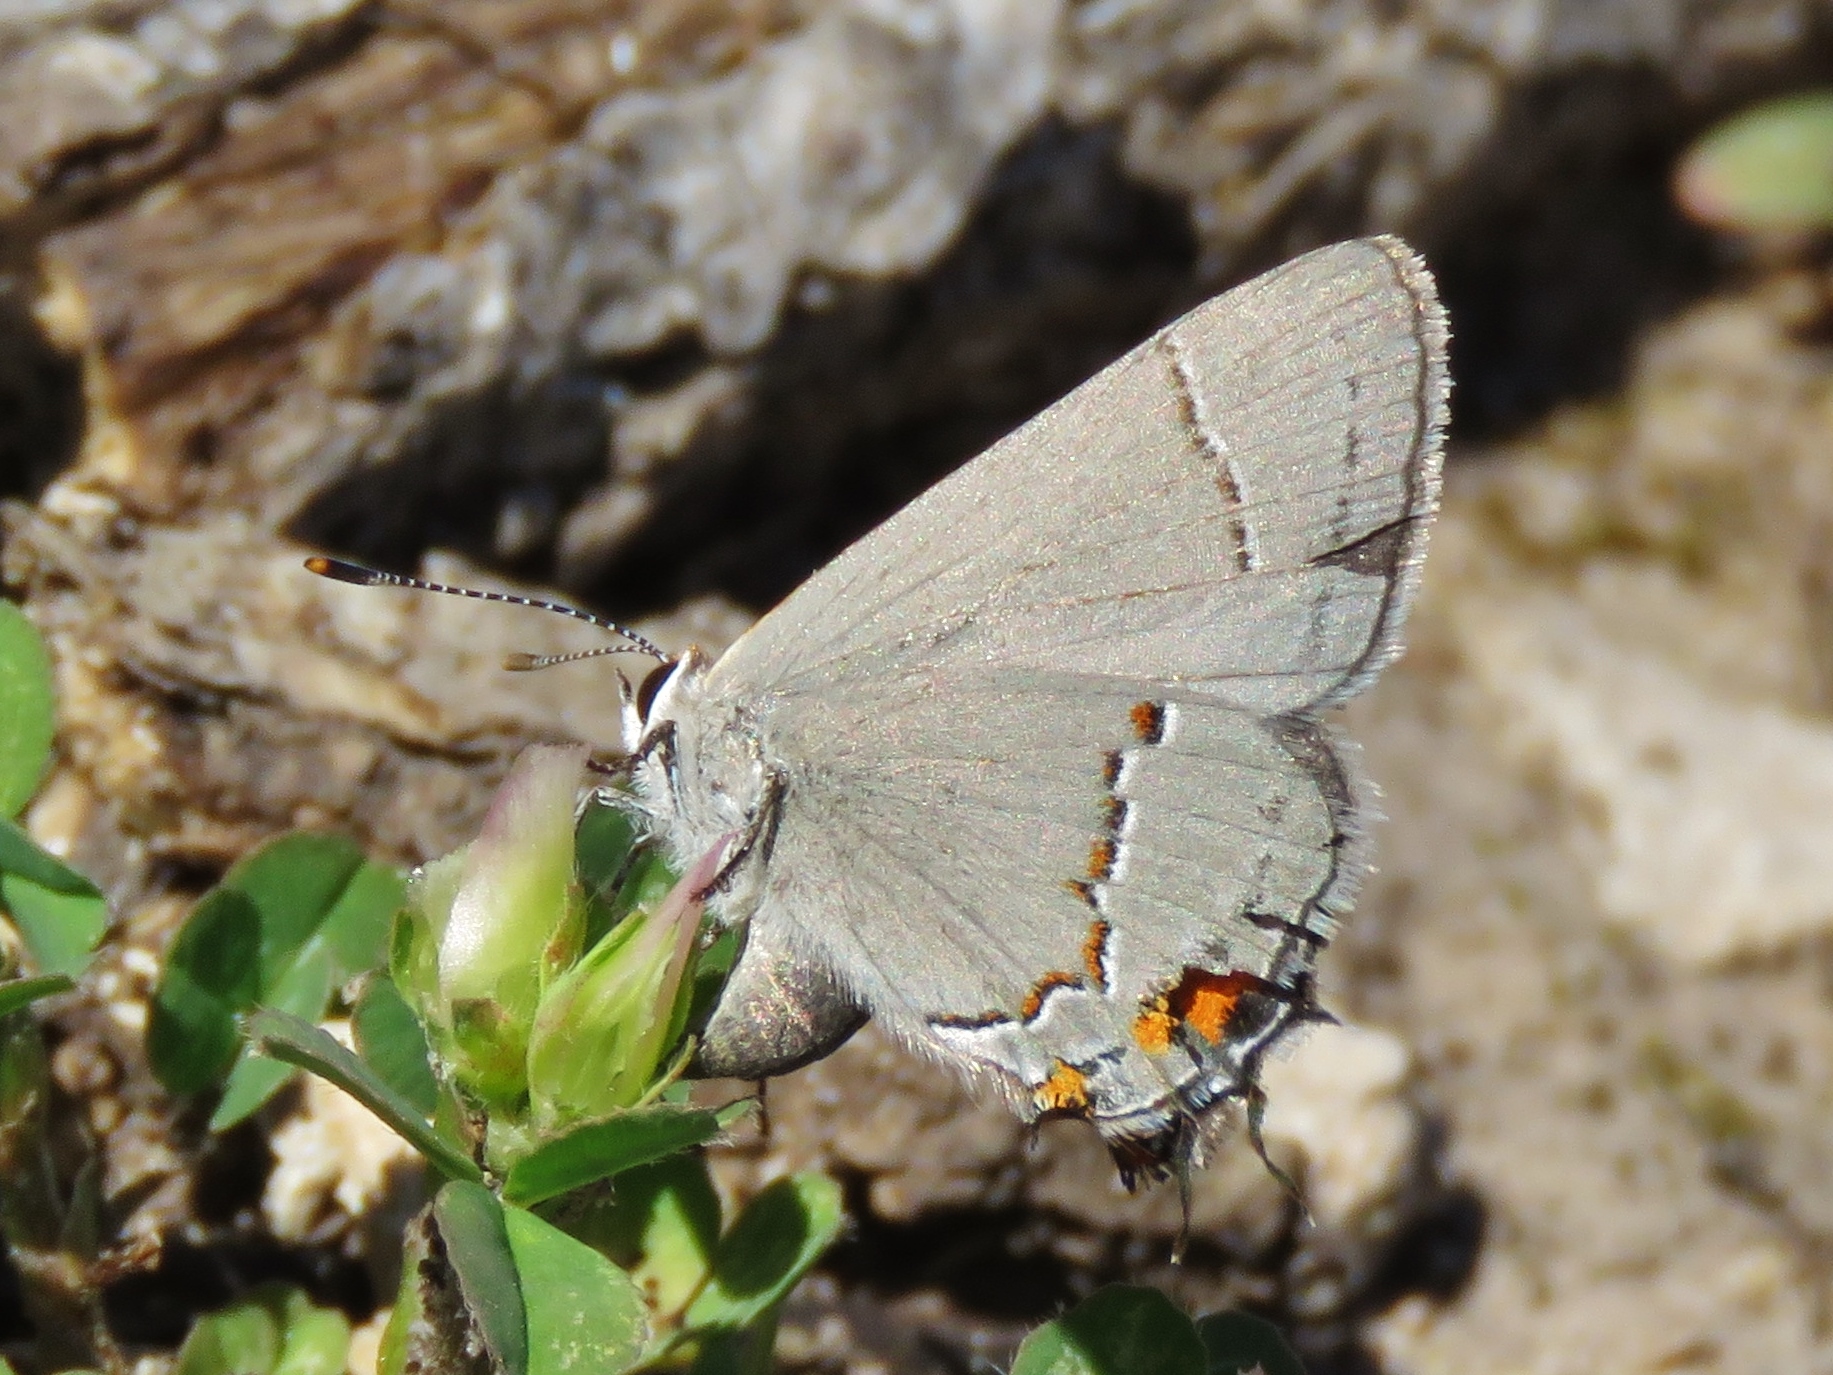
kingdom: Animalia
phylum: Arthropoda
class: Insecta
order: Lepidoptera
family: Lycaenidae
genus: Strymon
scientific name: Strymon melinus
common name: Gray hairstreak
